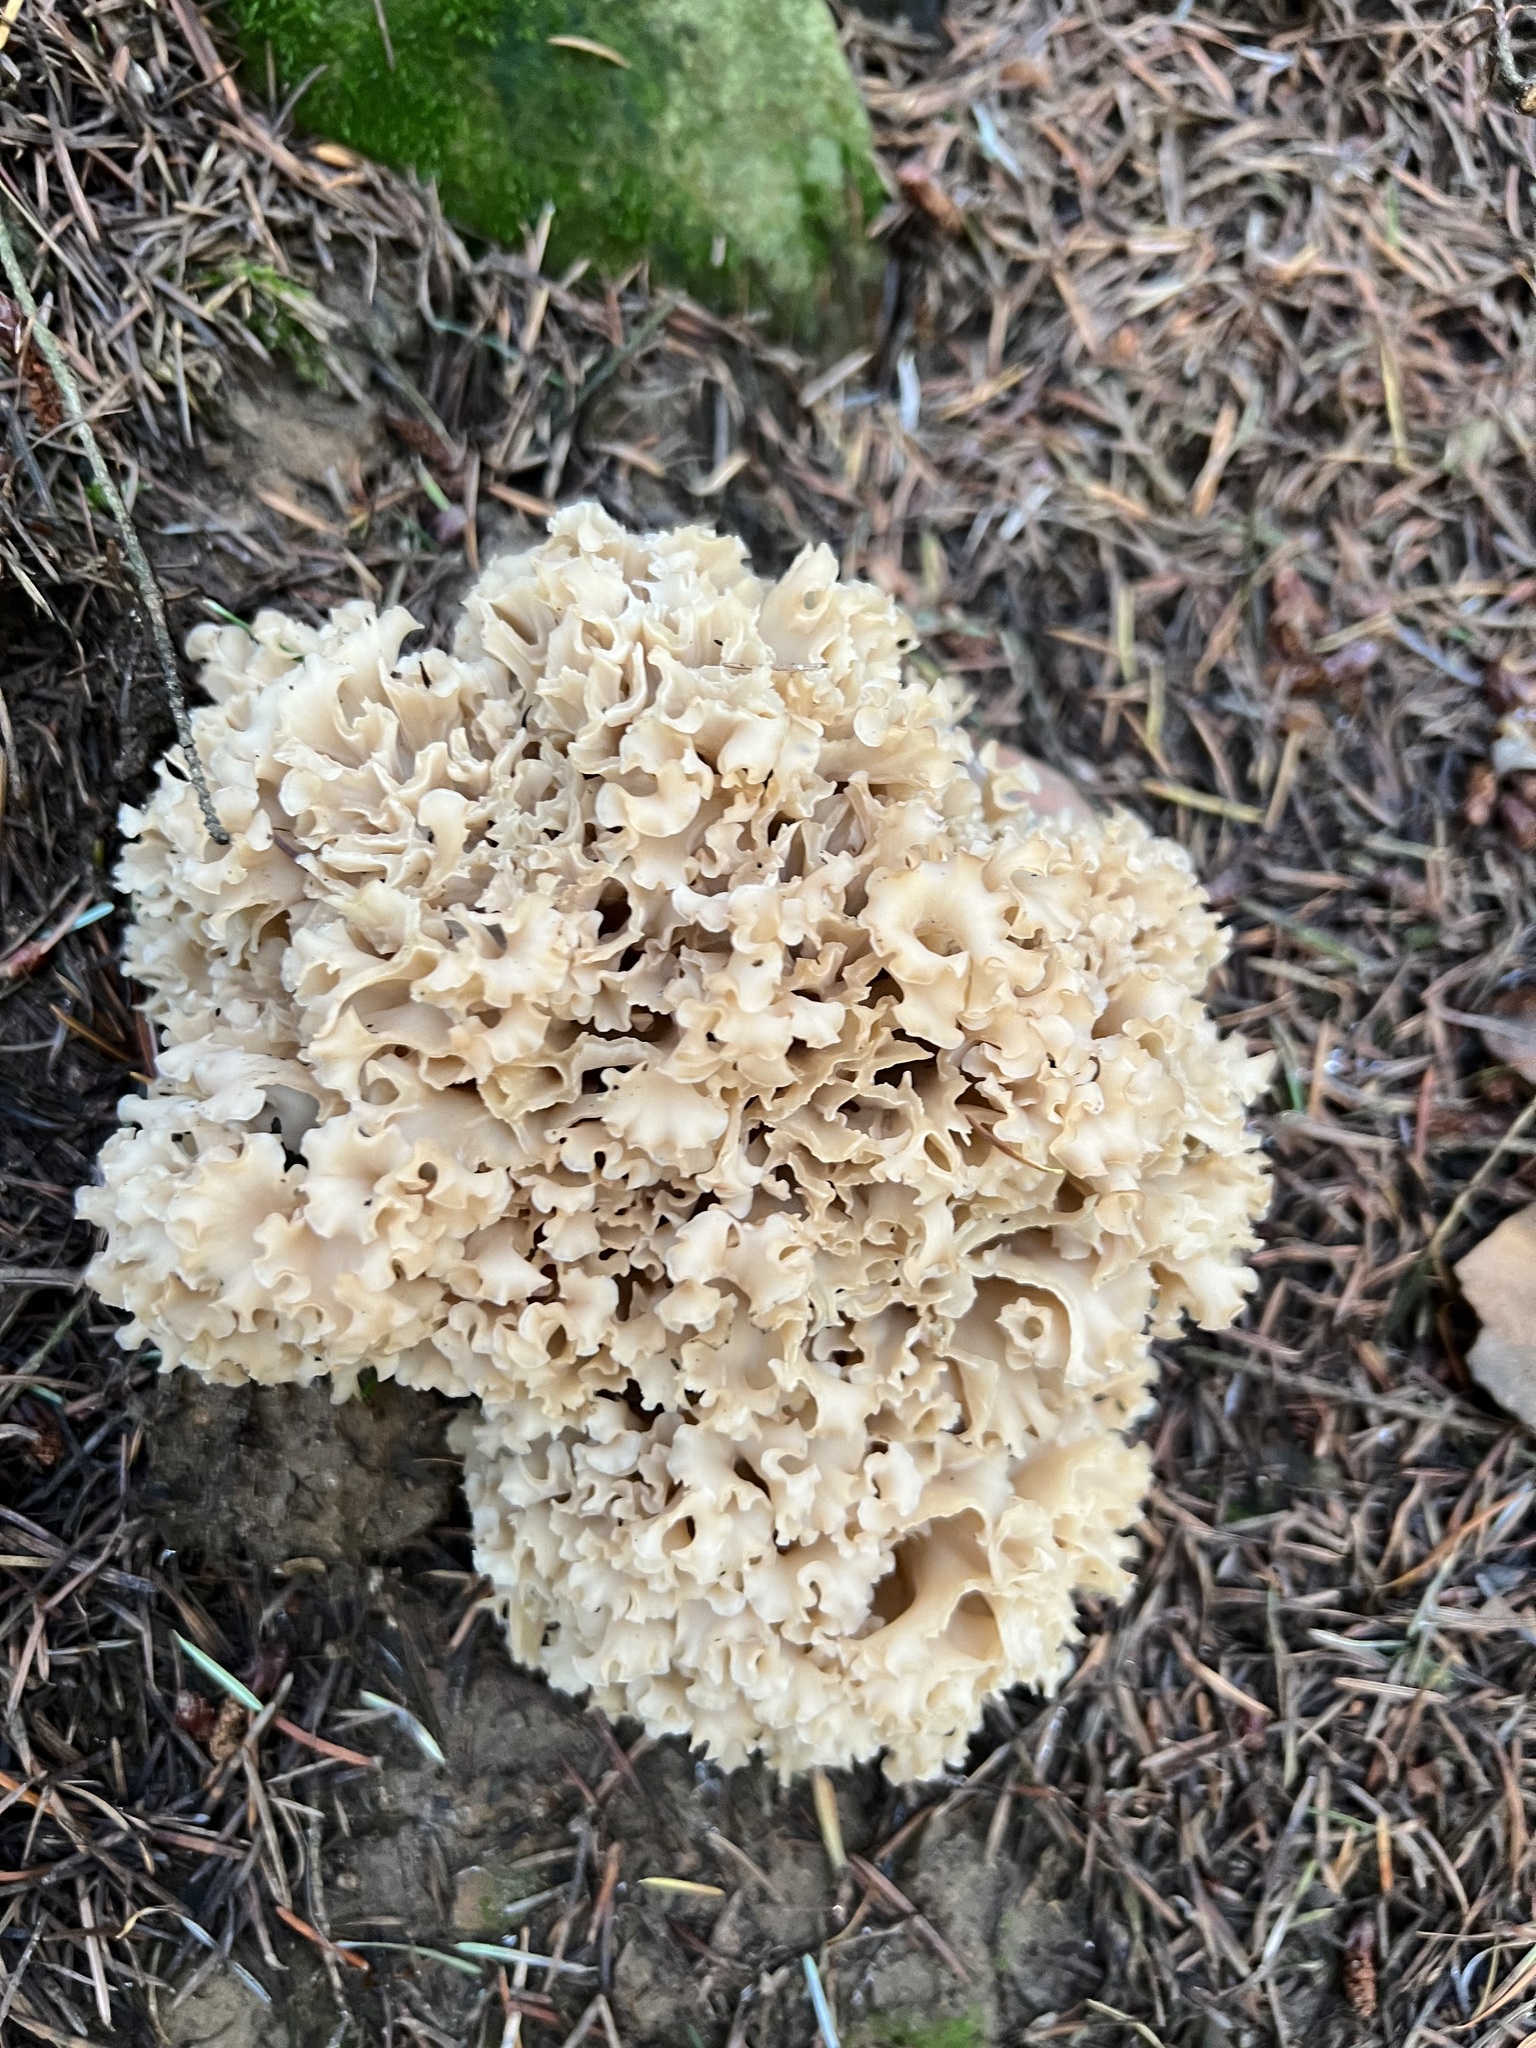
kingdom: Fungi
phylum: Basidiomycota
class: Agaricomycetes
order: Polyporales
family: Sparassidaceae
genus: Sparassis
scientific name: Sparassis crispa
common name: Brain fungus
